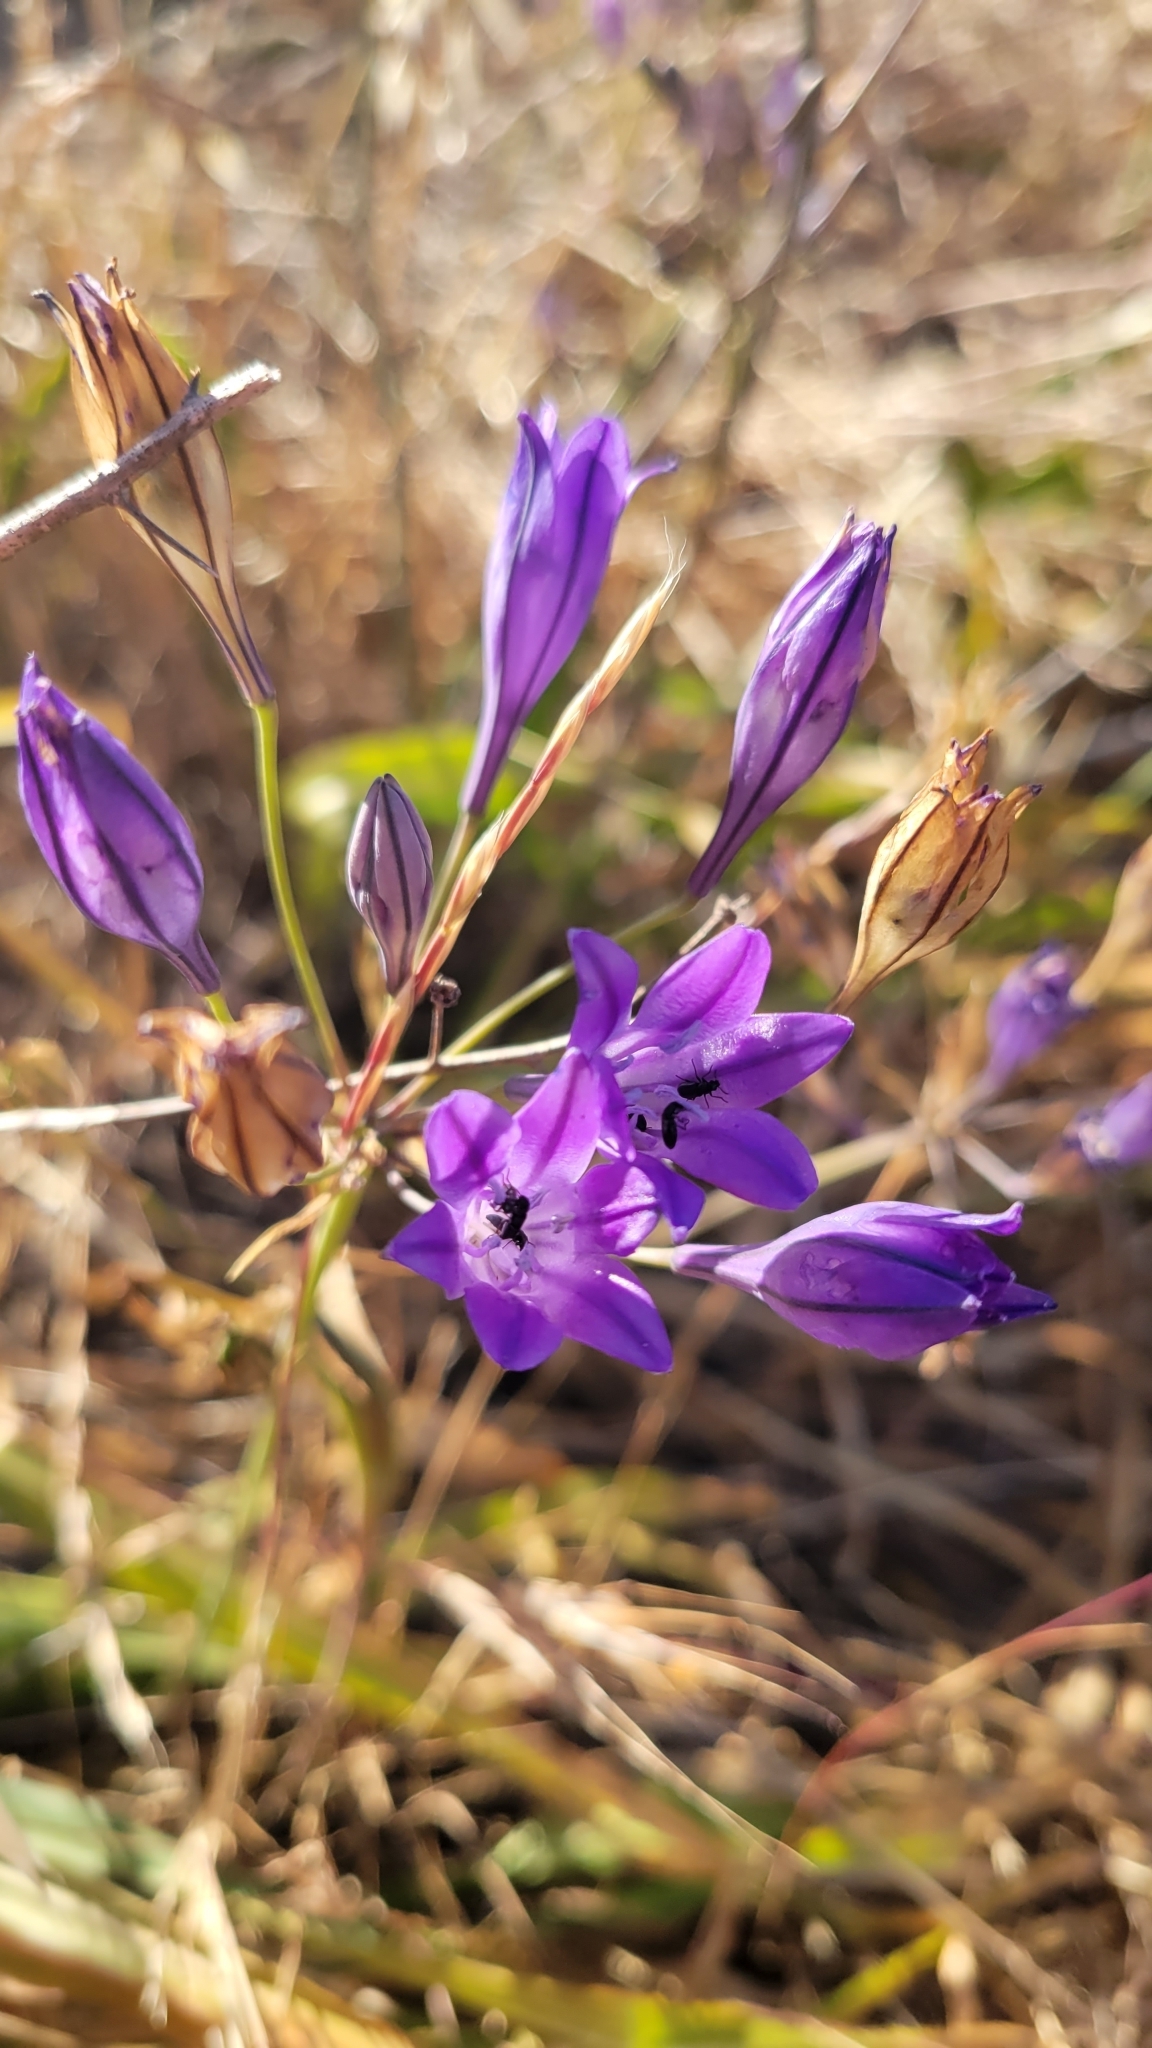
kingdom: Plantae
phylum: Tracheophyta
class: Liliopsida
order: Asparagales
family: Asparagaceae
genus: Triteleia
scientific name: Triteleia laxa
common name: Triplet-lily
